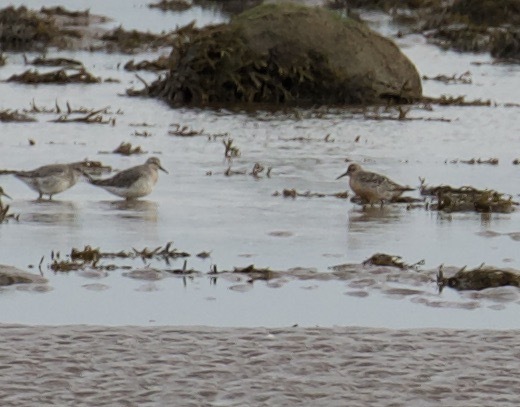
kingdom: Animalia
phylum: Chordata
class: Aves
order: Charadriiformes
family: Scolopacidae
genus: Calidris
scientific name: Calidris canutus
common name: Red knot
